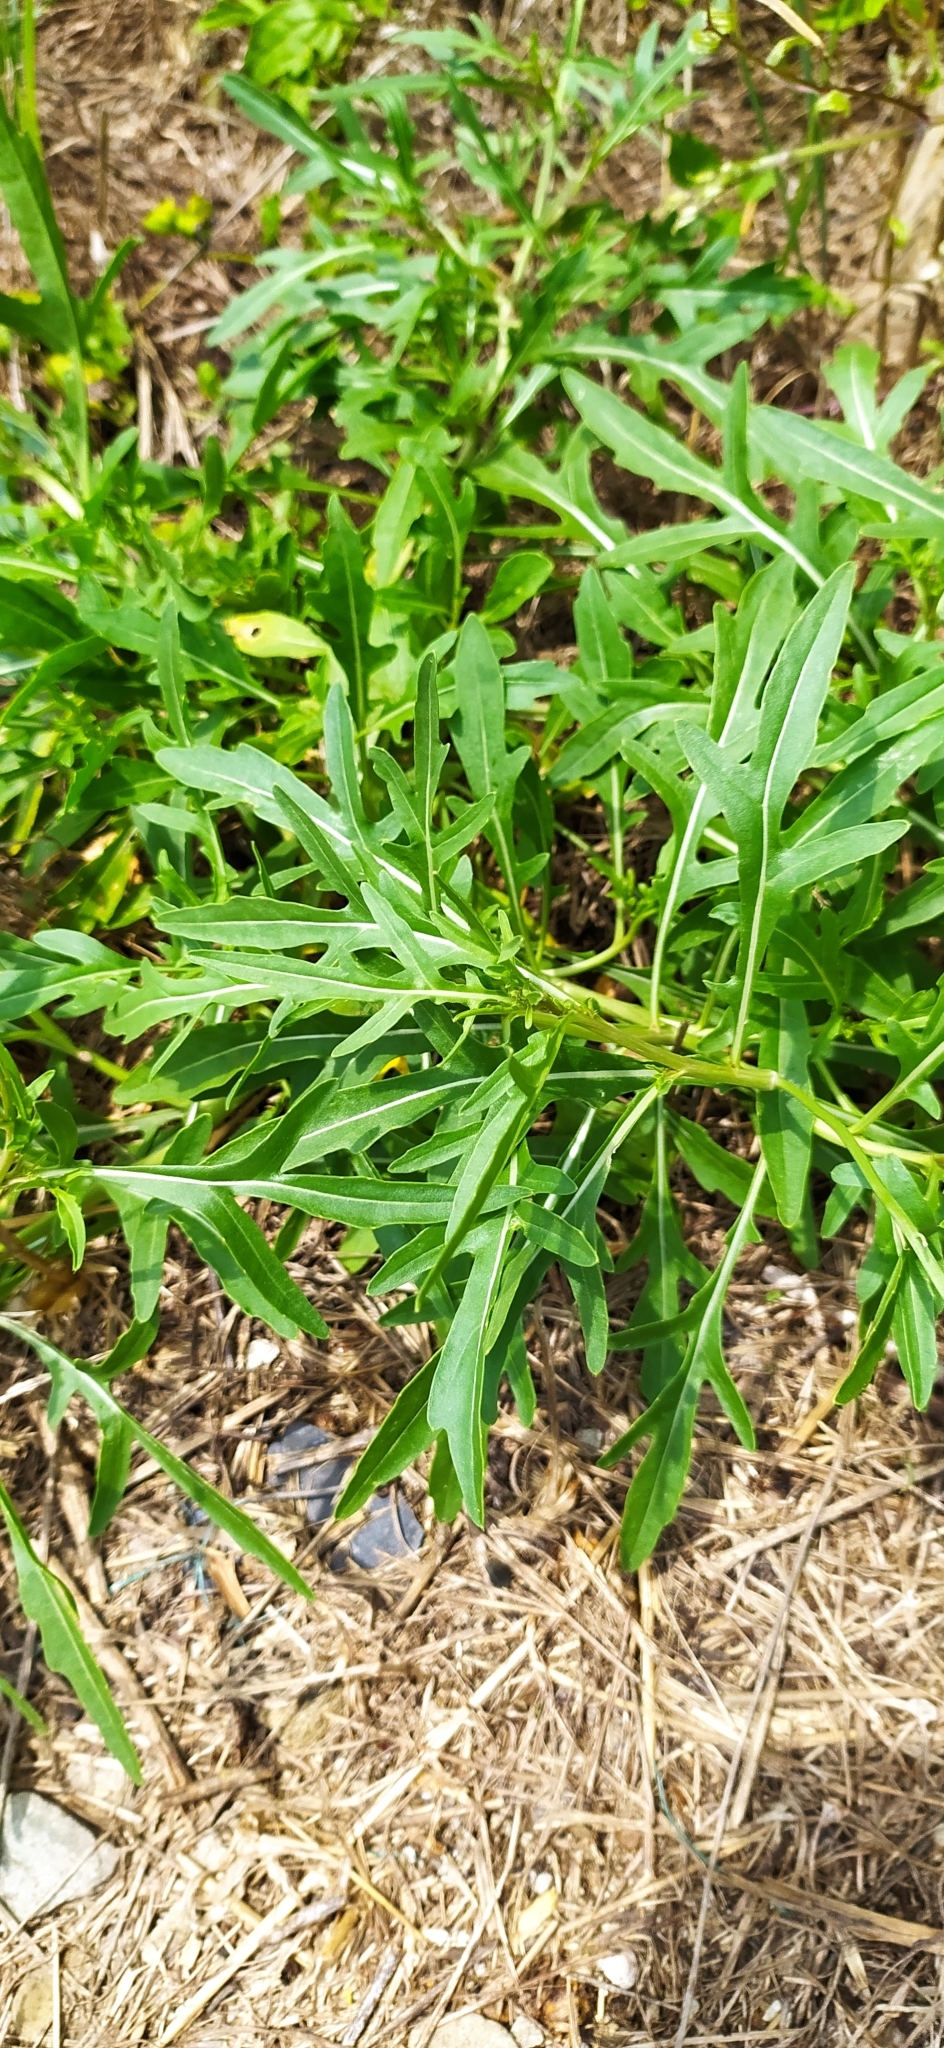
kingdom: Plantae
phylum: Tracheophyta
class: Magnoliopsida
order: Brassicales
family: Brassicaceae
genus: Diplotaxis
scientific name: Diplotaxis tenuifolia
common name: Perennial wall-rocket
